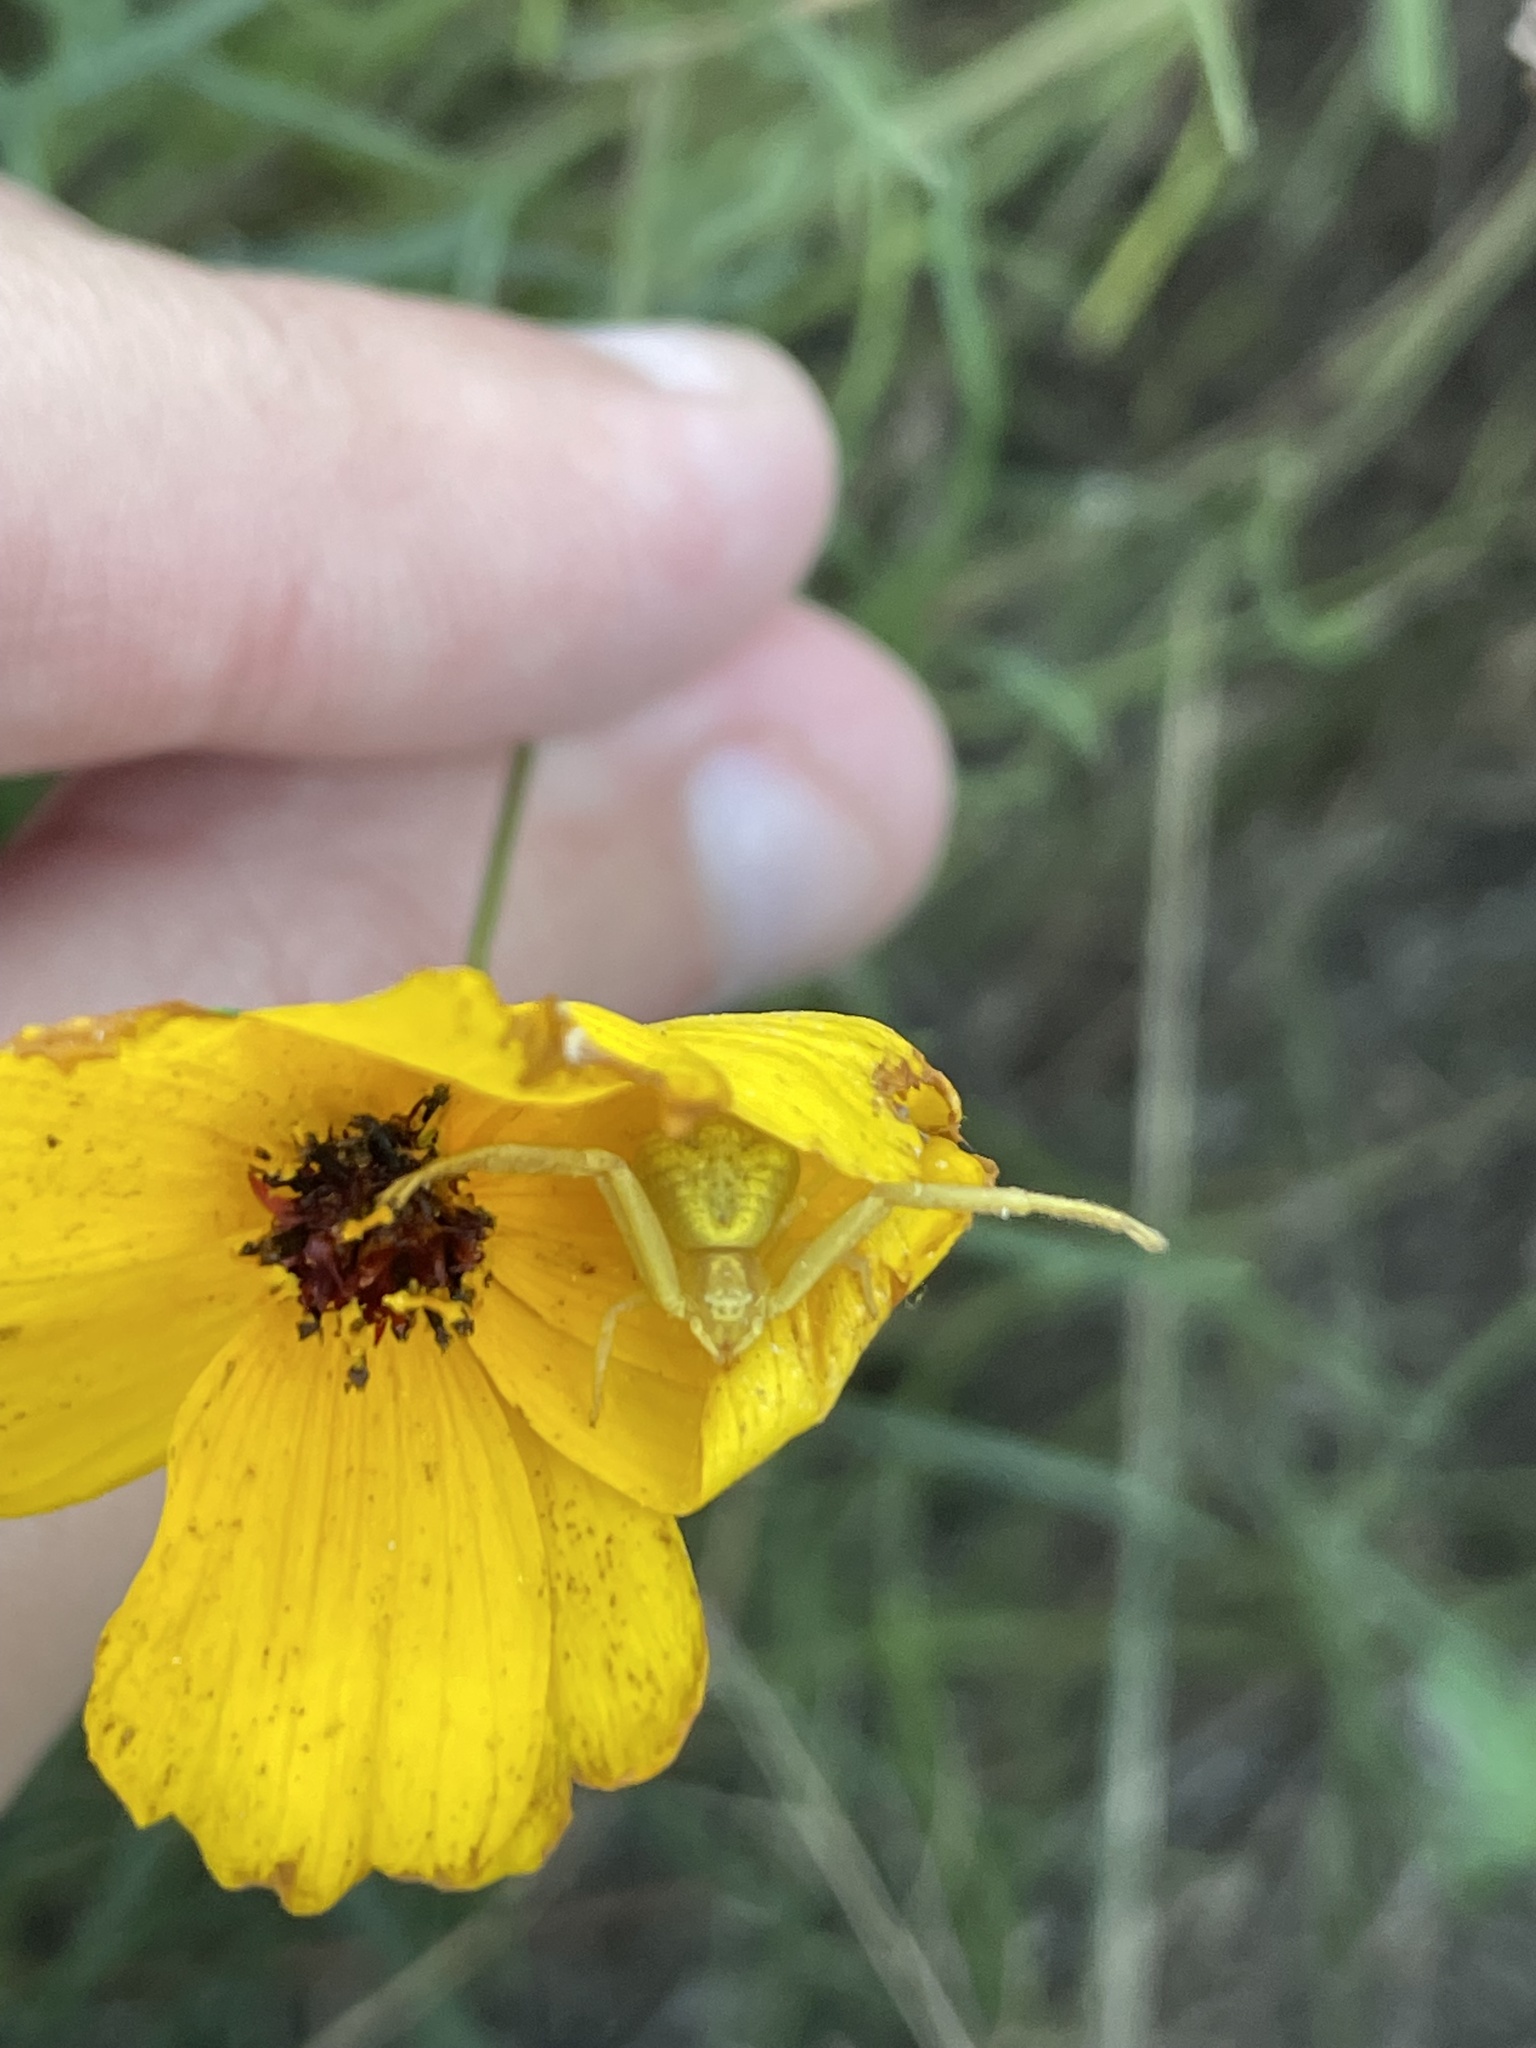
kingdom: Animalia
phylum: Arthropoda
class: Arachnida
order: Araneae
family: Thomisidae
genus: Misumessus
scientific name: Misumessus oblongus
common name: American green crab spider
